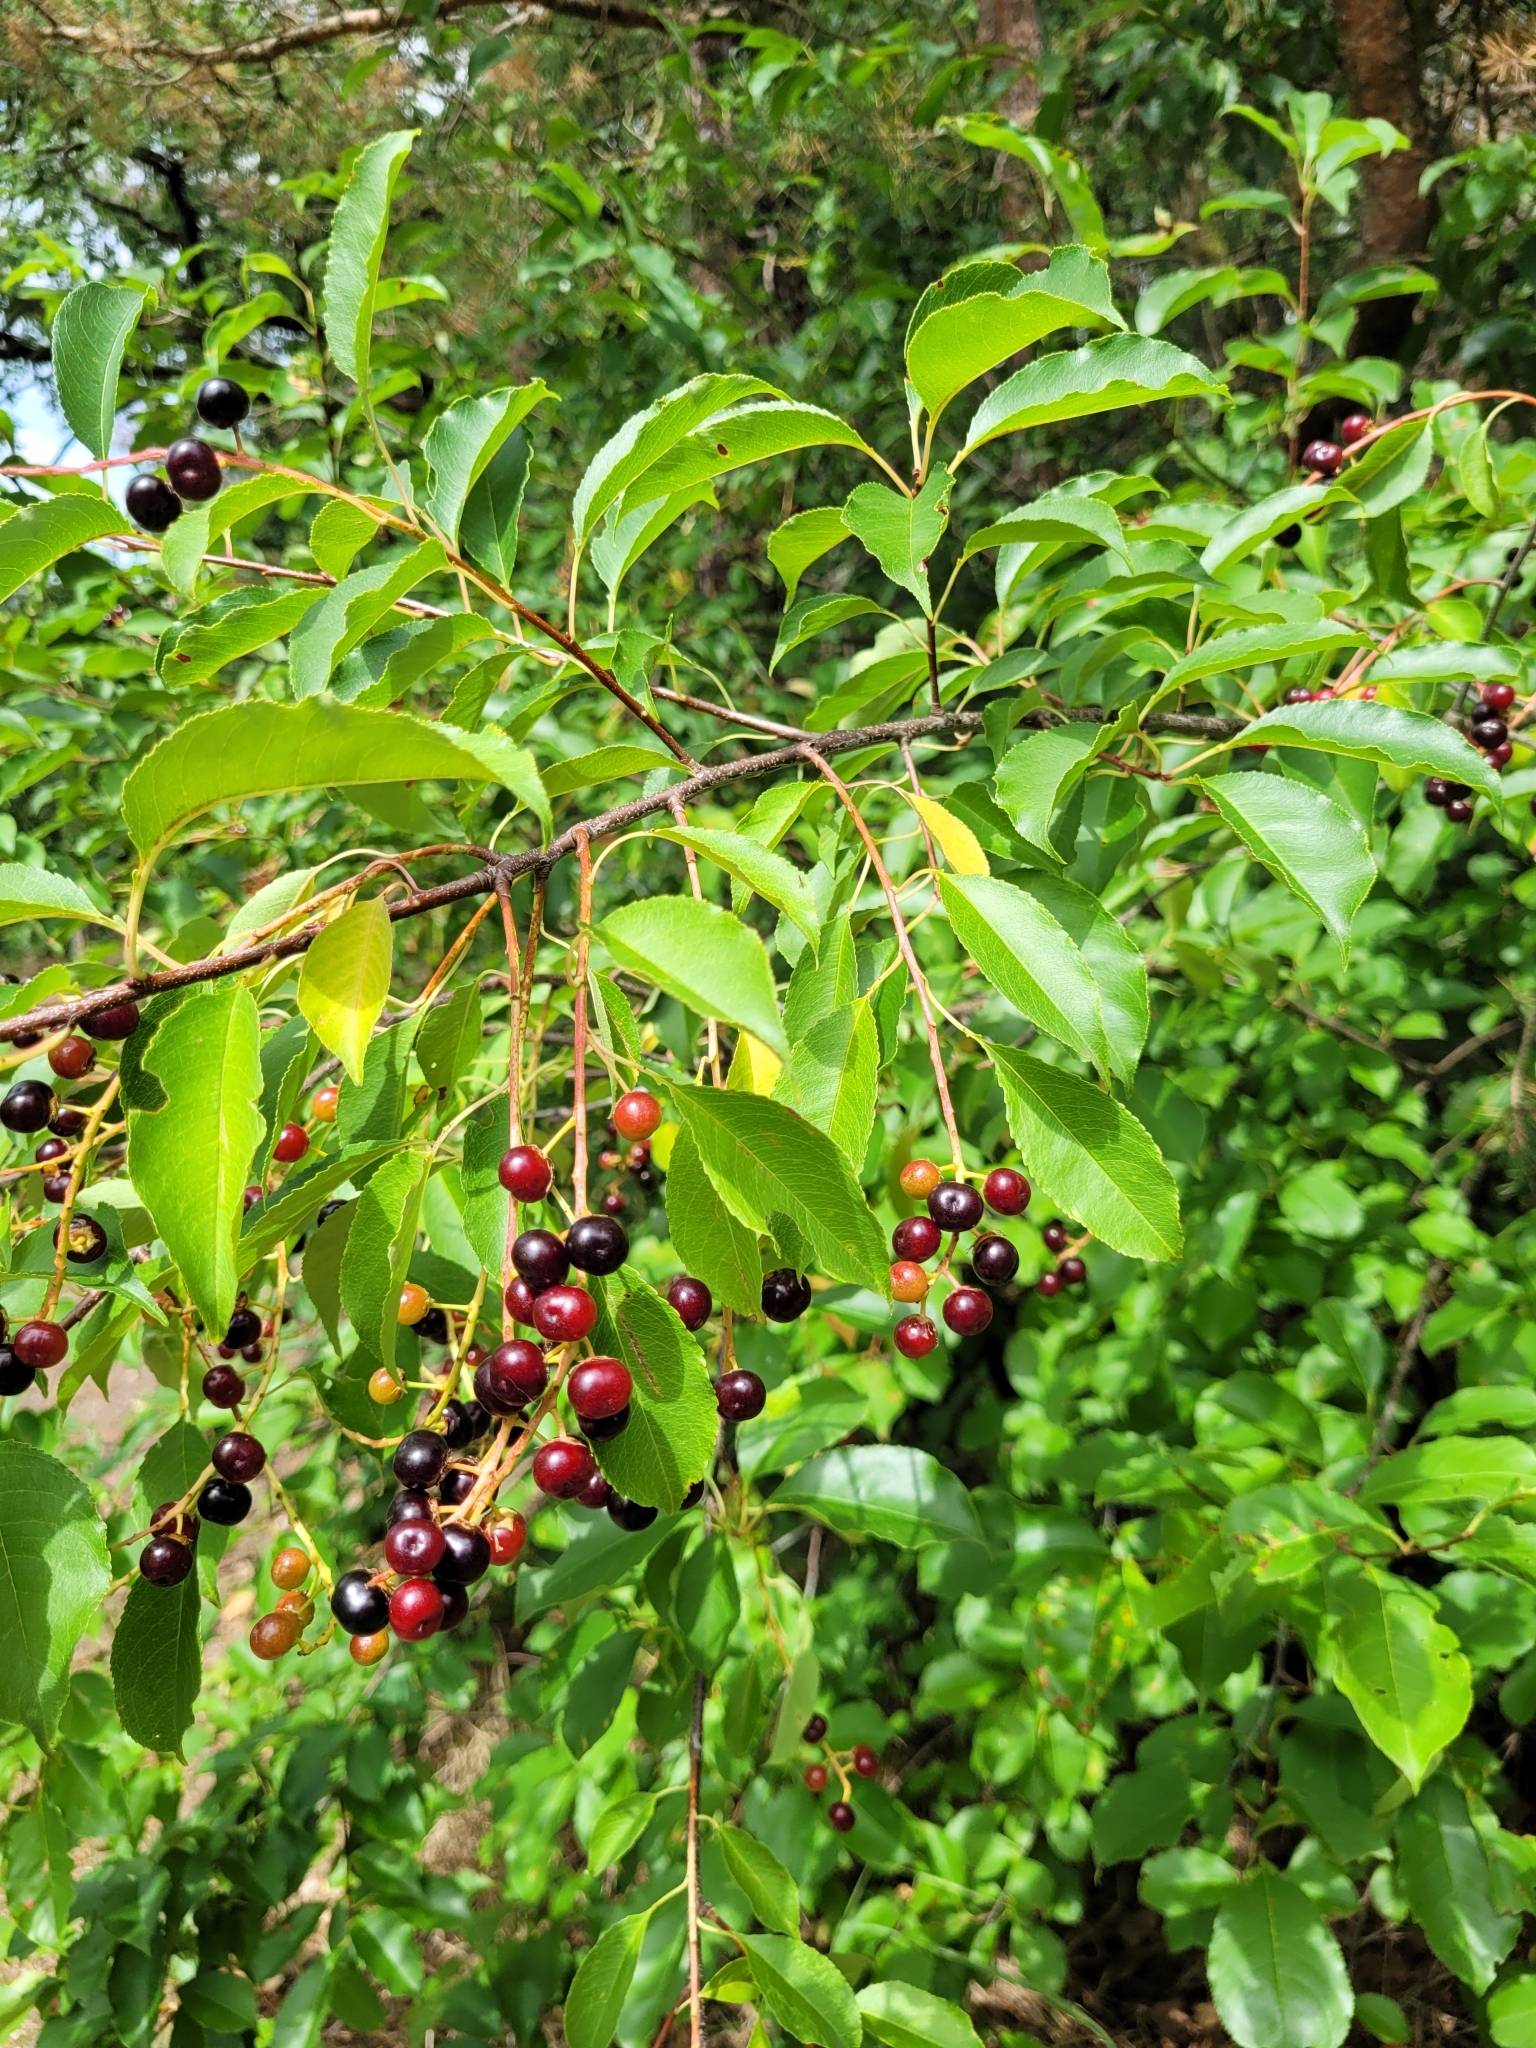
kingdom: Plantae
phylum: Tracheophyta
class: Magnoliopsida
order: Rosales
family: Rosaceae
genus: Prunus
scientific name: Prunus serotina
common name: Black cherry
